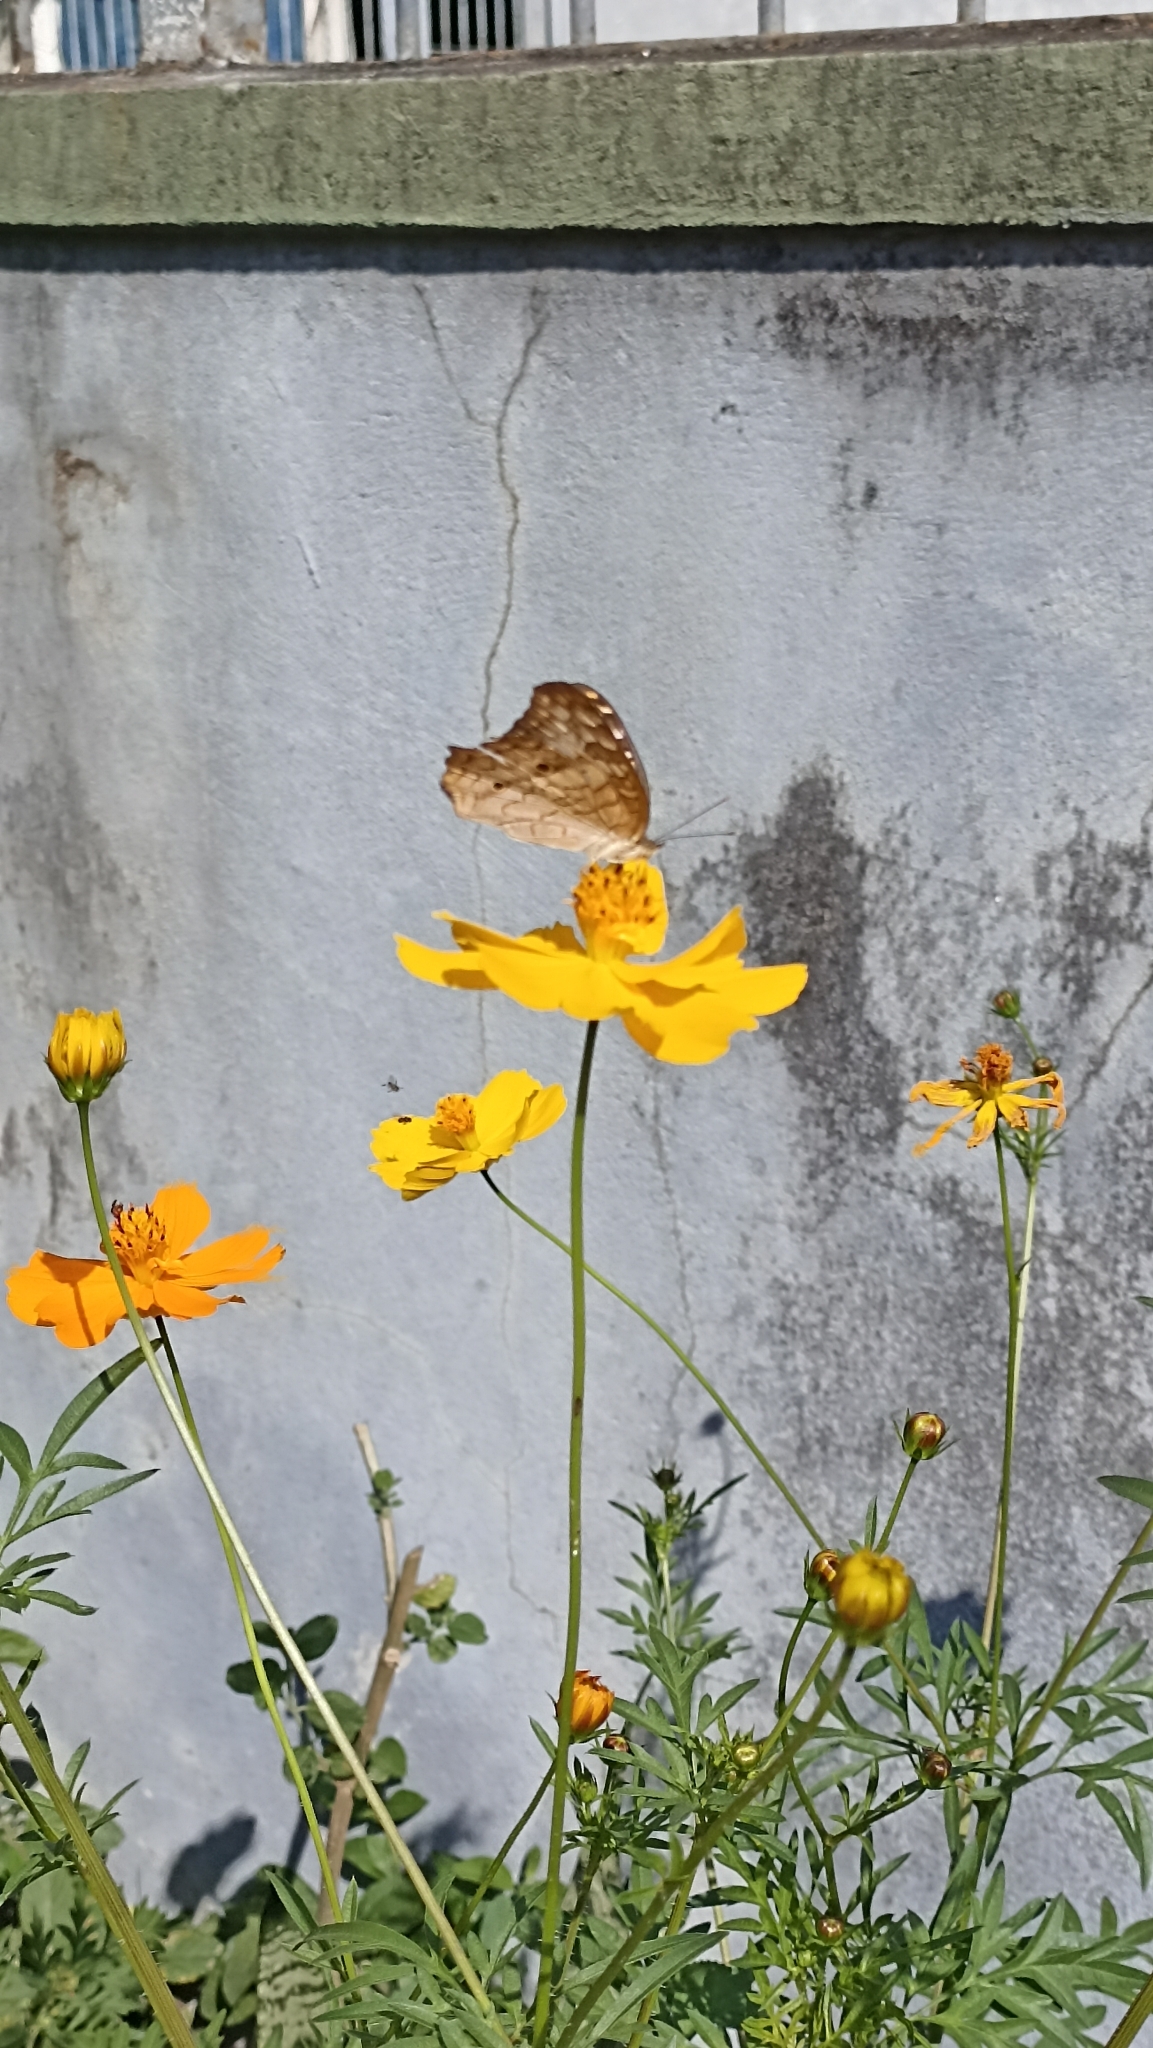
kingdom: Animalia
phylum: Arthropoda
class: Insecta
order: Lepidoptera
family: Nymphalidae
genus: Anartia
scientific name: Anartia jatrophae
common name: White peacock
